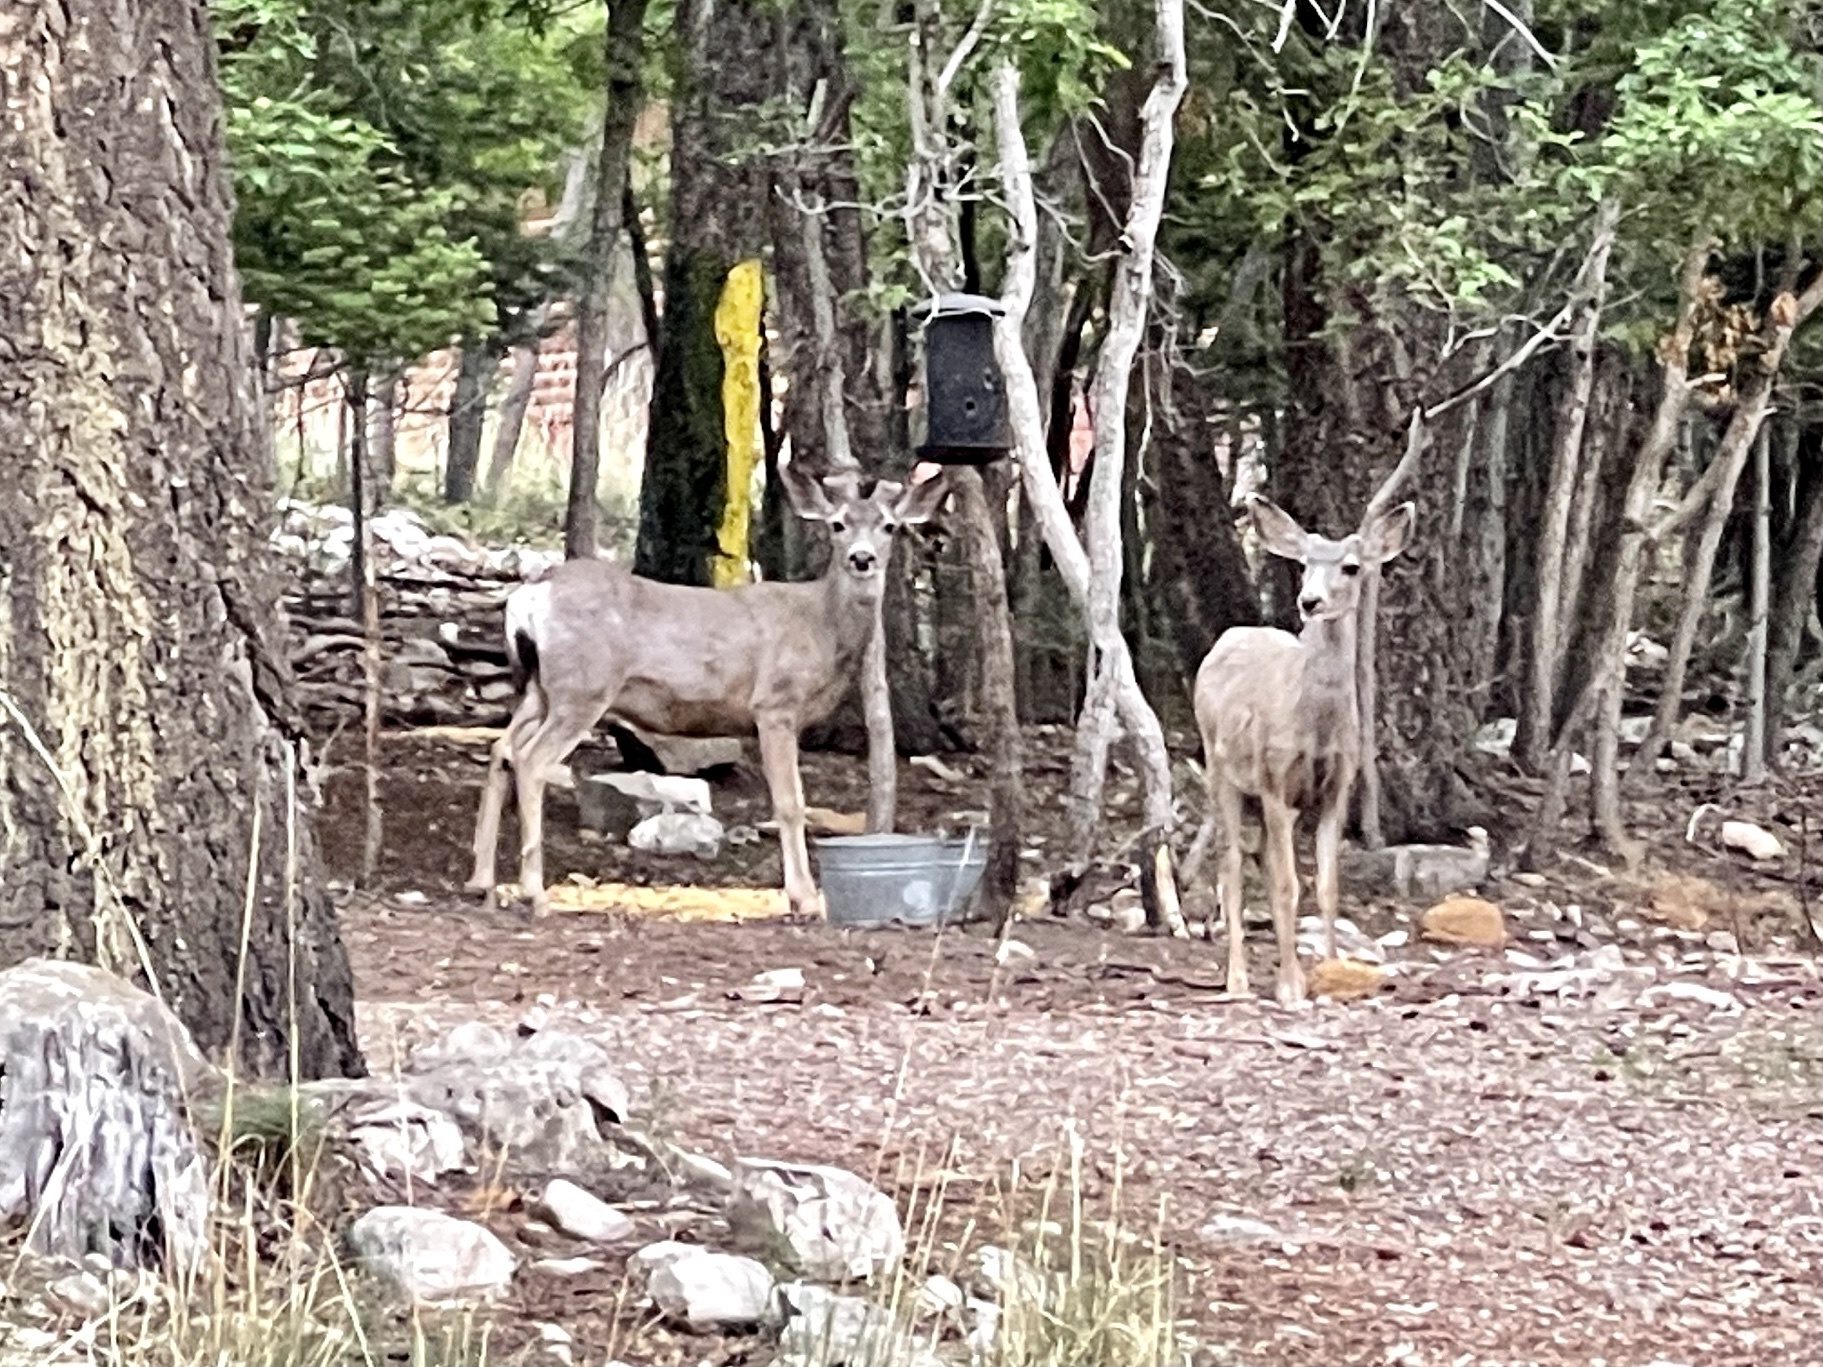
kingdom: Animalia
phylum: Chordata
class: Mammalia
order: Artiodactyla
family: Cervidae
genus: Odocoileus
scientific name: Odocoileus hemionus
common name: Mule deer
